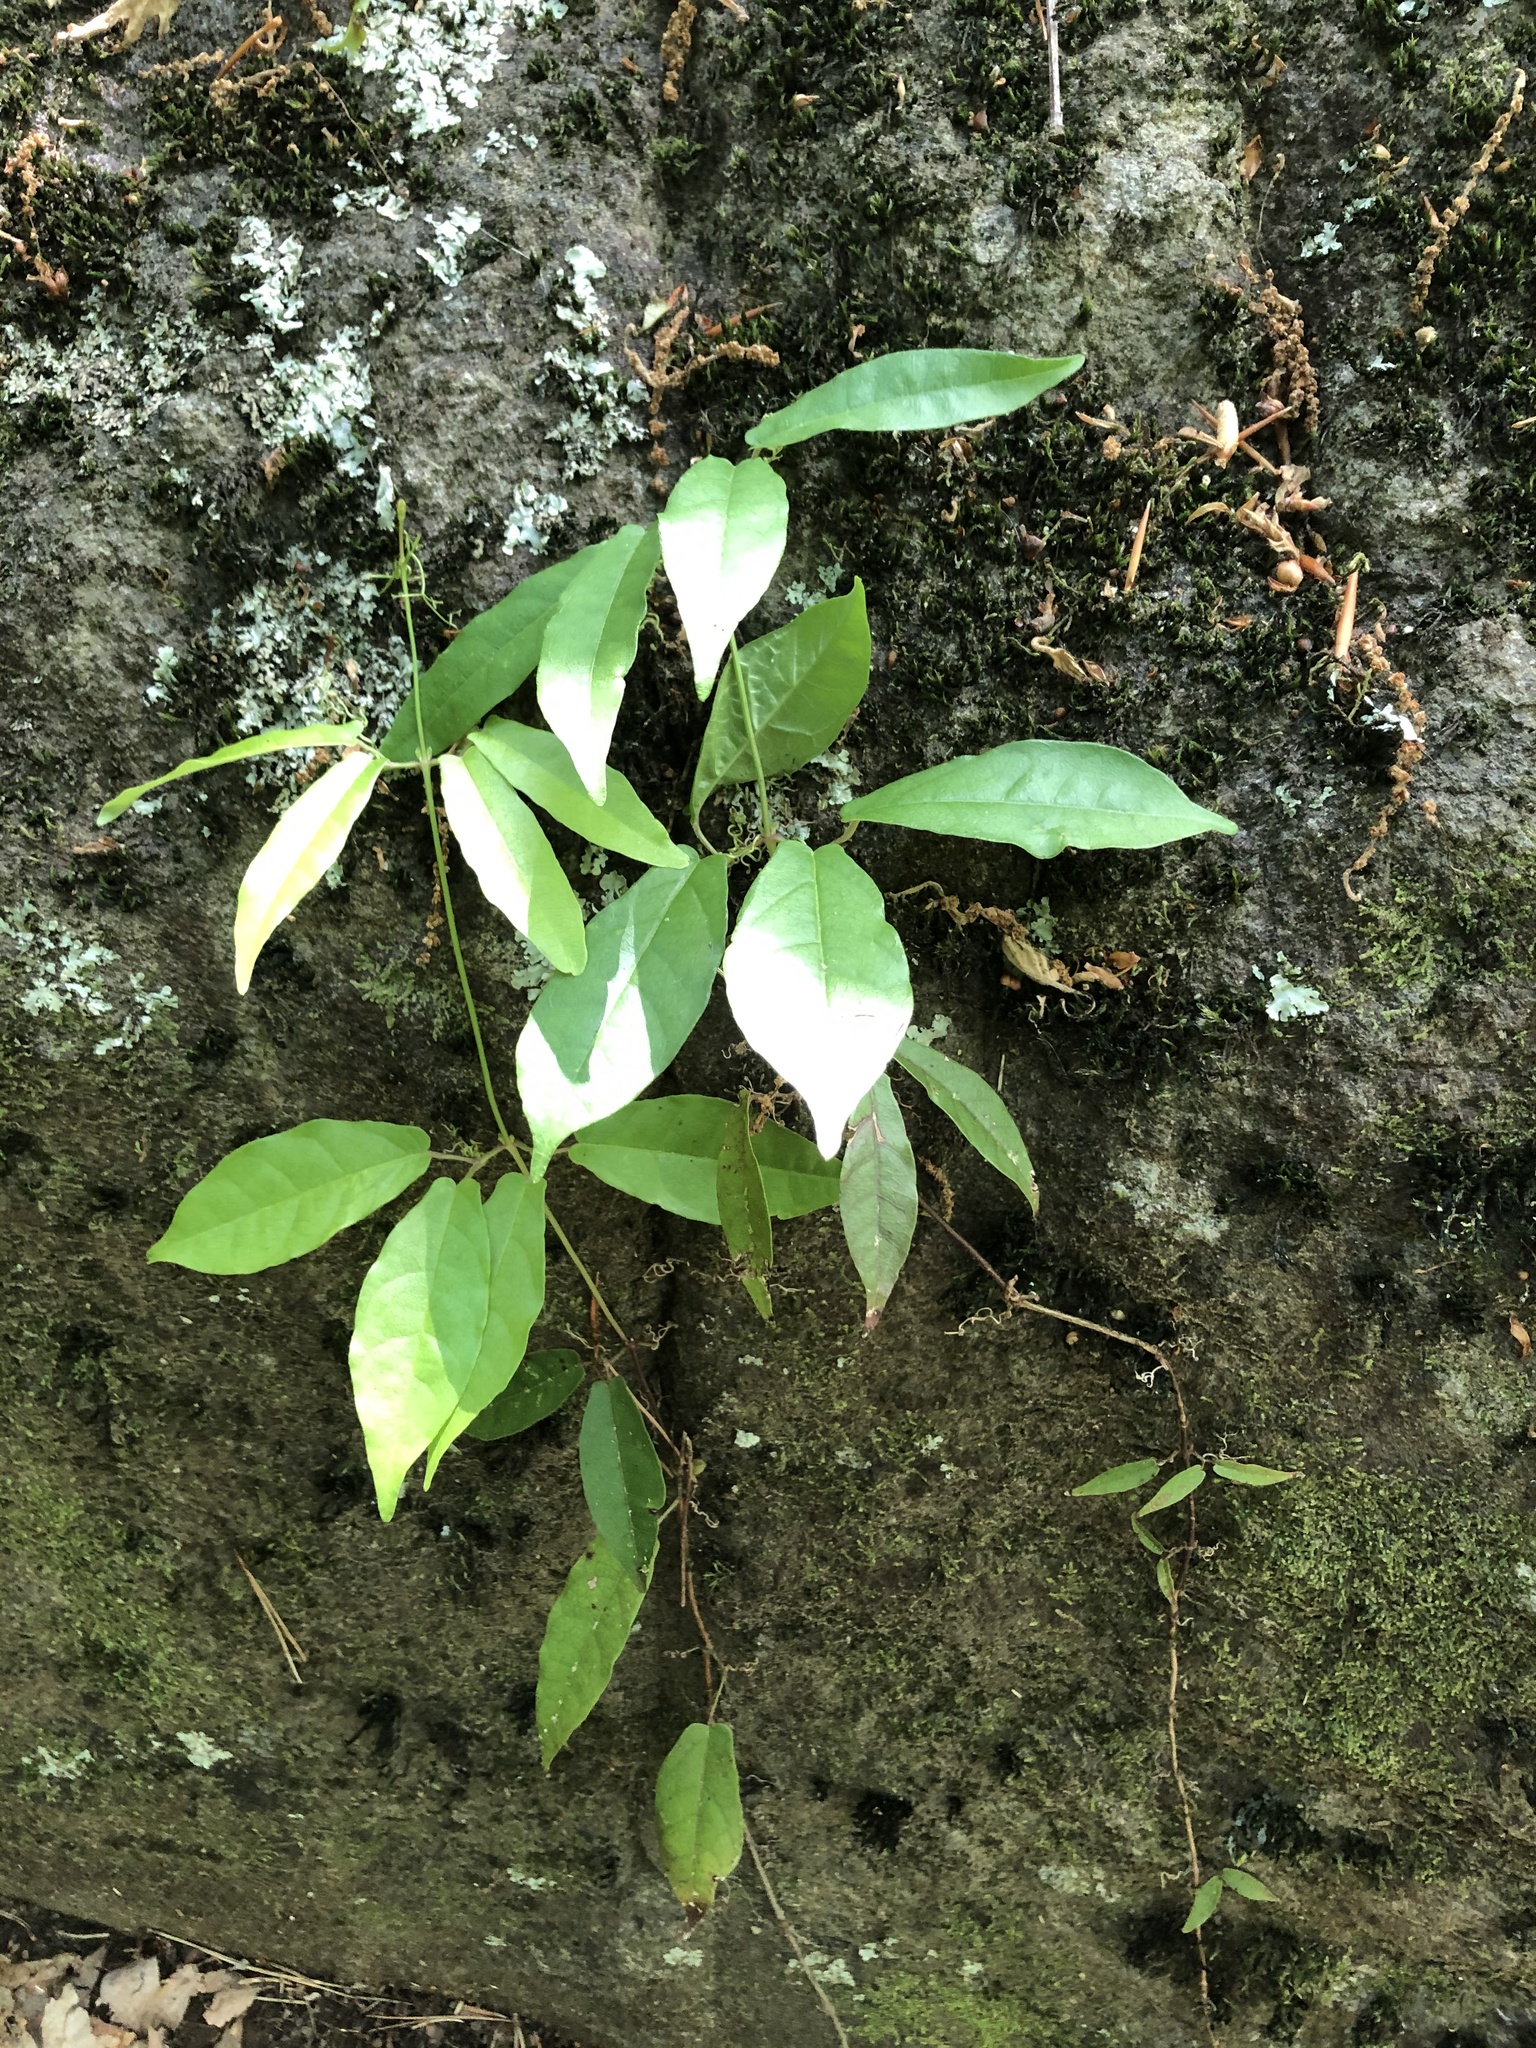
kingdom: Plantae
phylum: Tracheophyta
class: Magnoliopsida
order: Lamiales
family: Bignoniaceae
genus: Bignonia
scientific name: Bignonia capreolata
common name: Crossvine
